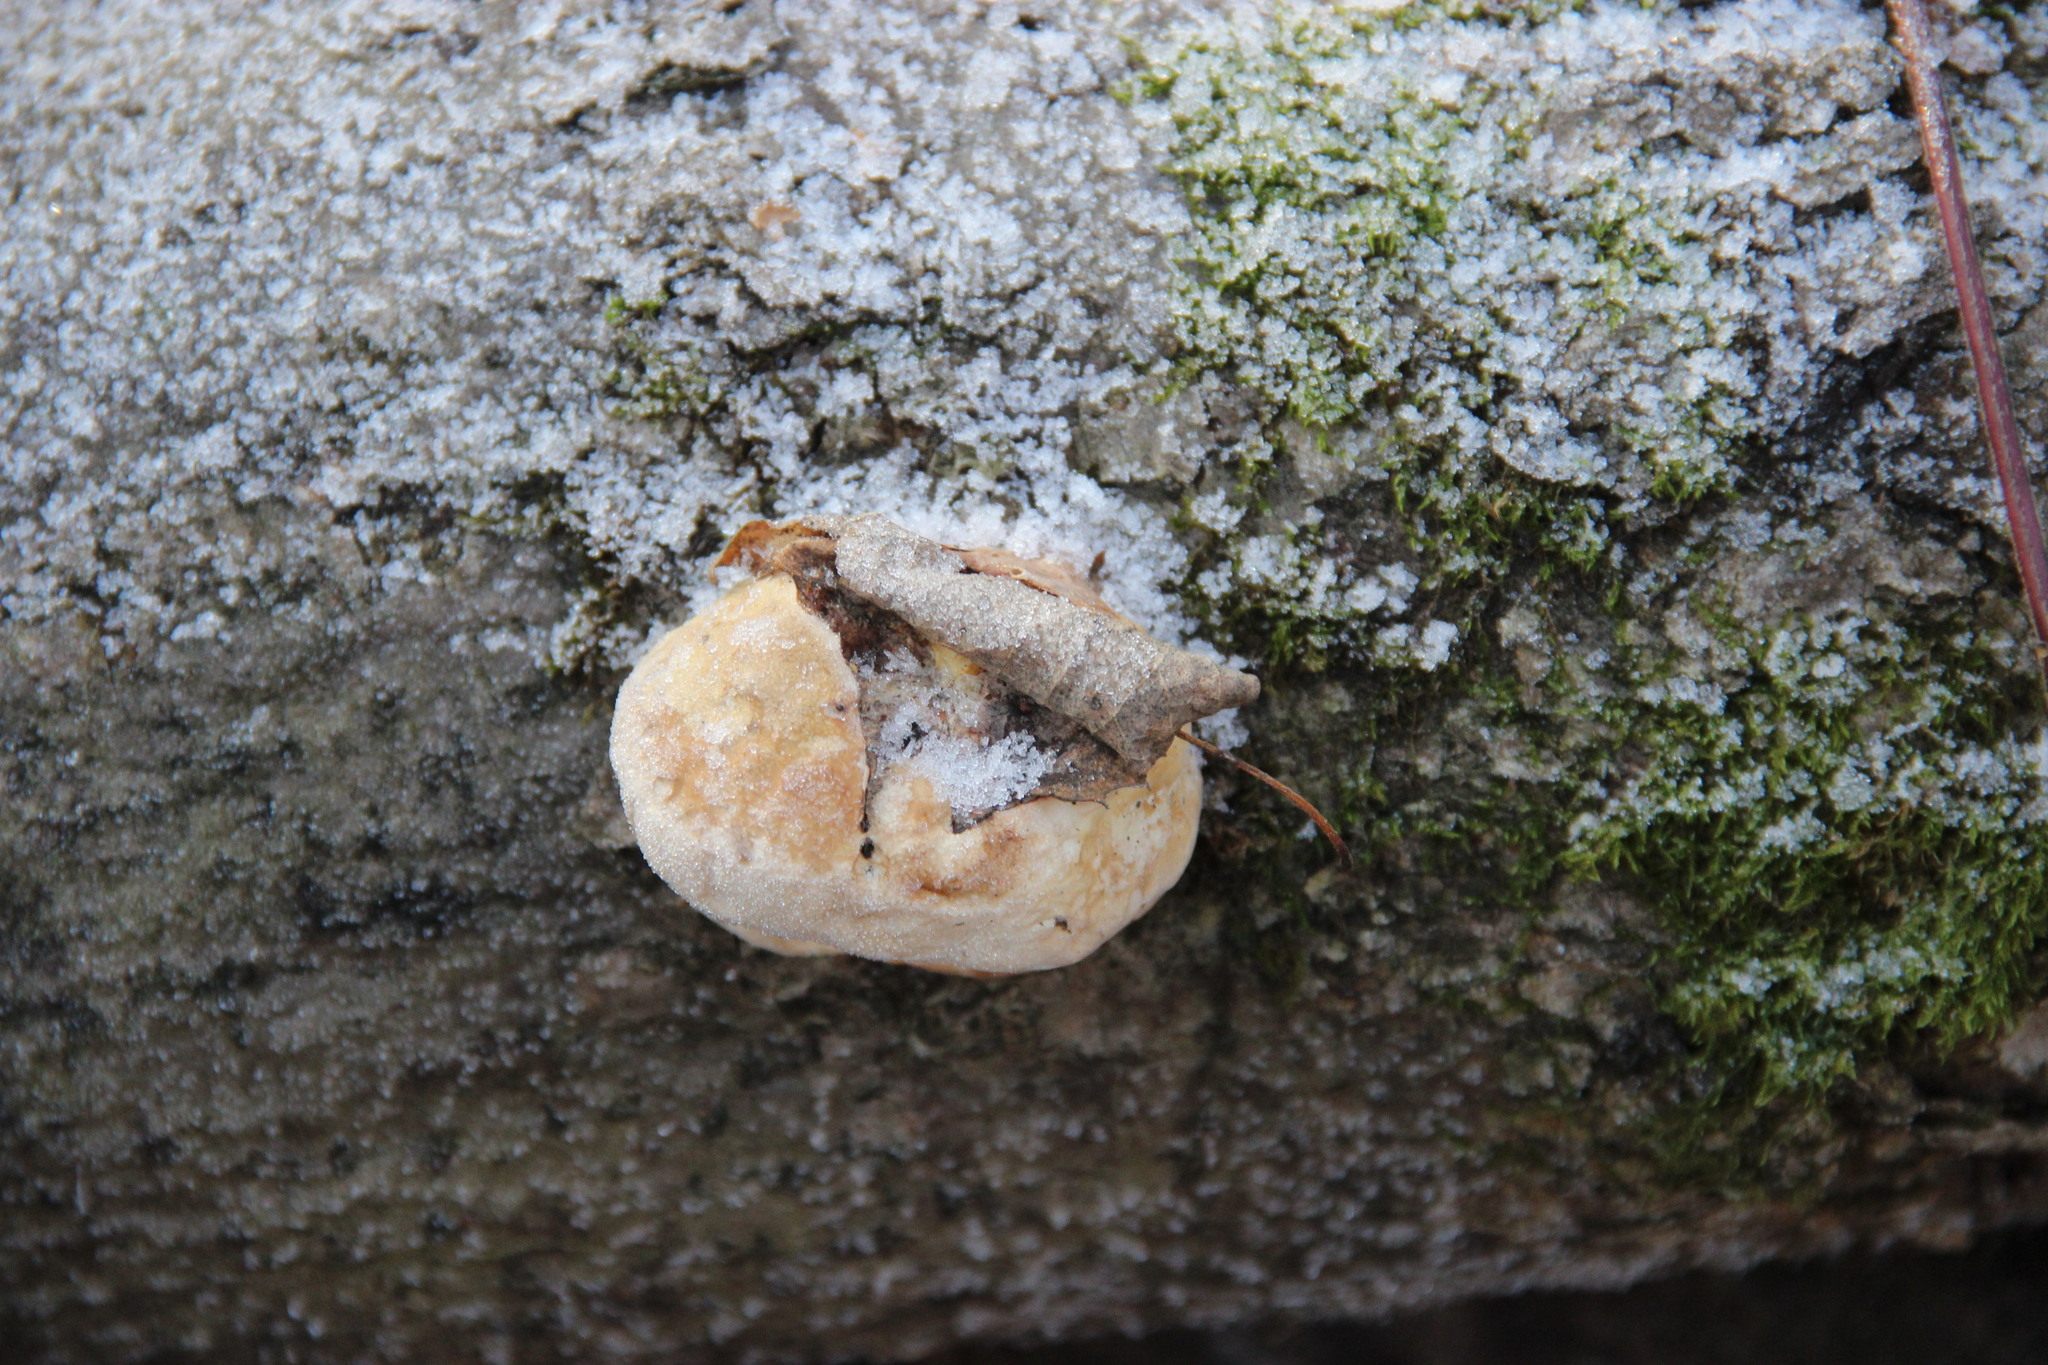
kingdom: Fungi
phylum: Basidiomycota
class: Agaricomycetes
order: Polyporales
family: Fomitopsidaceae
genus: Fomitopsis
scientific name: Fomitopsis pinicola
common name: Red-belted bracket
